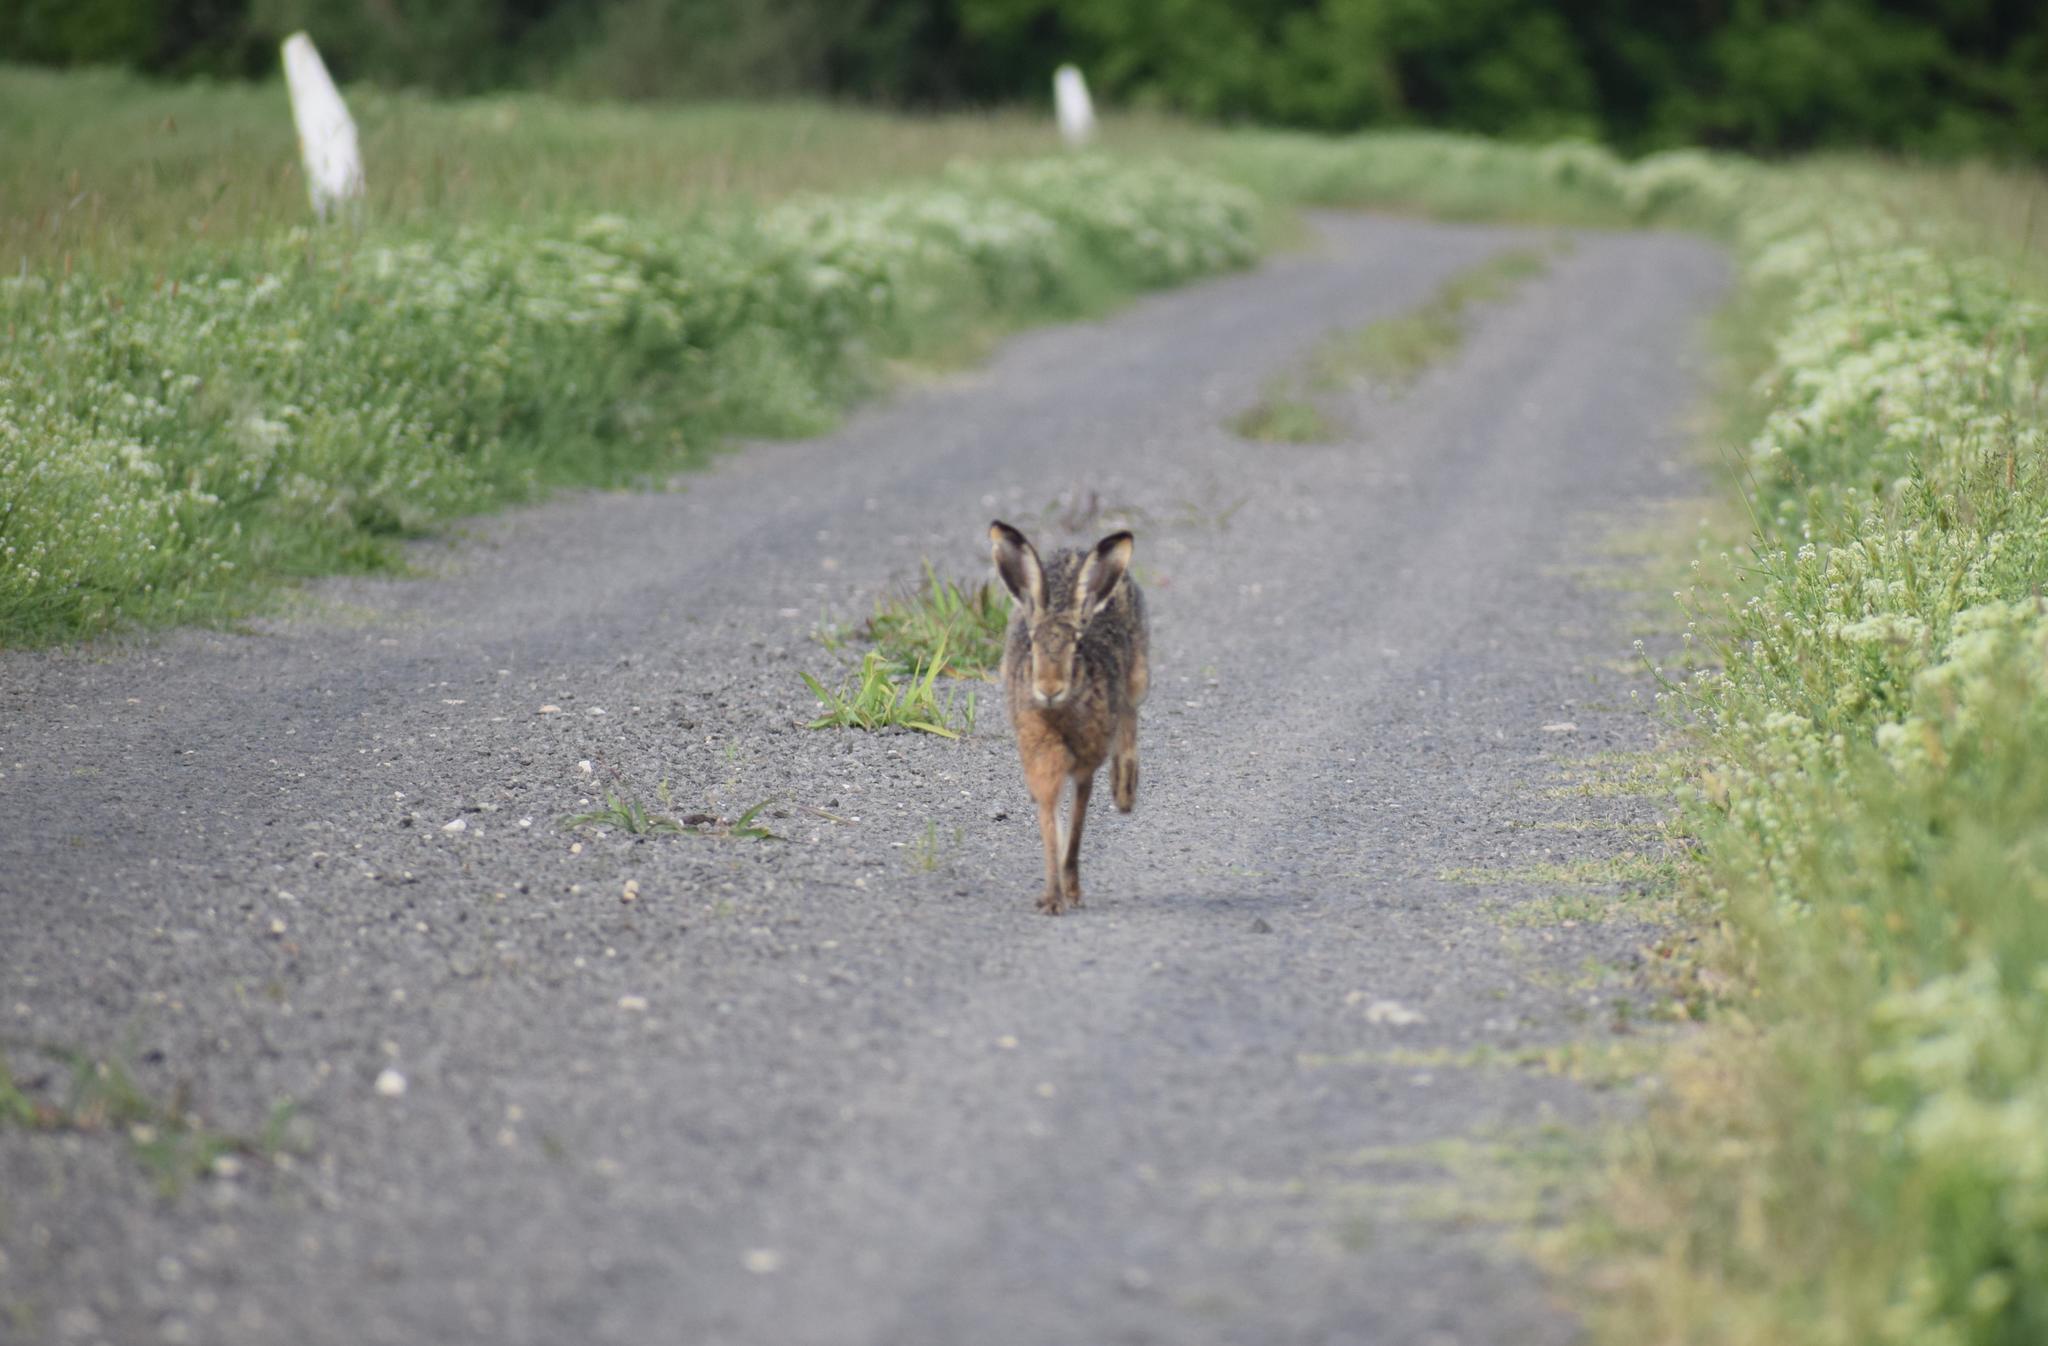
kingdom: Animalia
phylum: Chordata
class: Mammalia
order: Lagomorpha
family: Leporidae
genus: Lepus
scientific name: Lepus europaeus
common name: European hare
